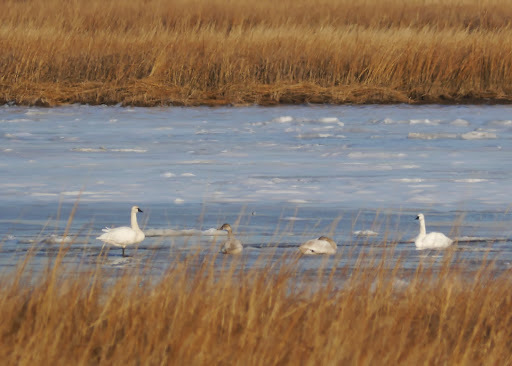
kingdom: Animalia
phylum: Chordata
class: Aves
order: Anseriformes
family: Anatidae
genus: Cygnus
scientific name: Cygnus columbianus
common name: Tundra swan
